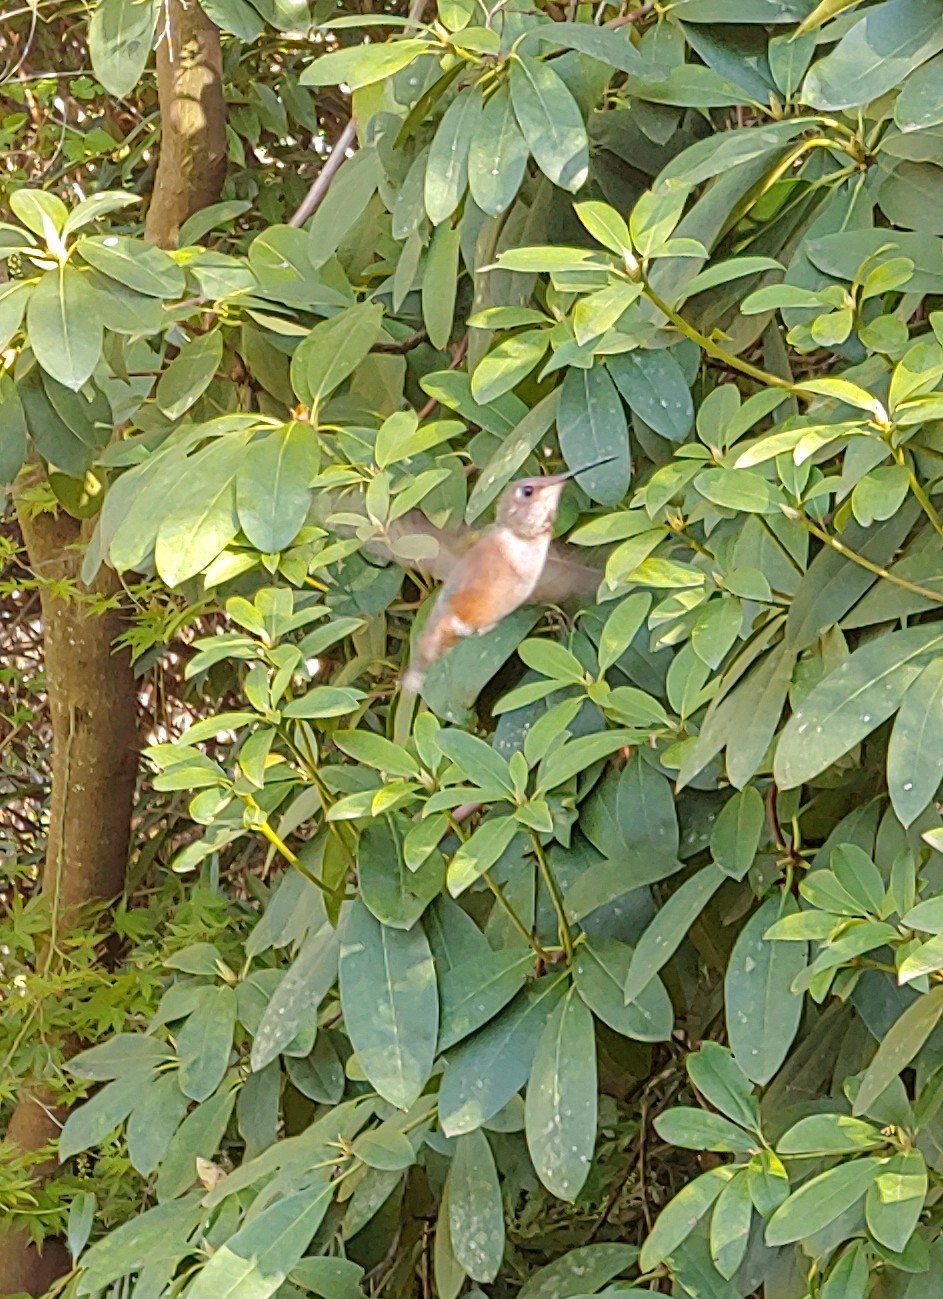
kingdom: Animalia
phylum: Chordata
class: Aves
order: Apodiformes
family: Trochilidae
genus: Selasphorus
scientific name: Selasphorus rufus
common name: Rufous hummingbird
